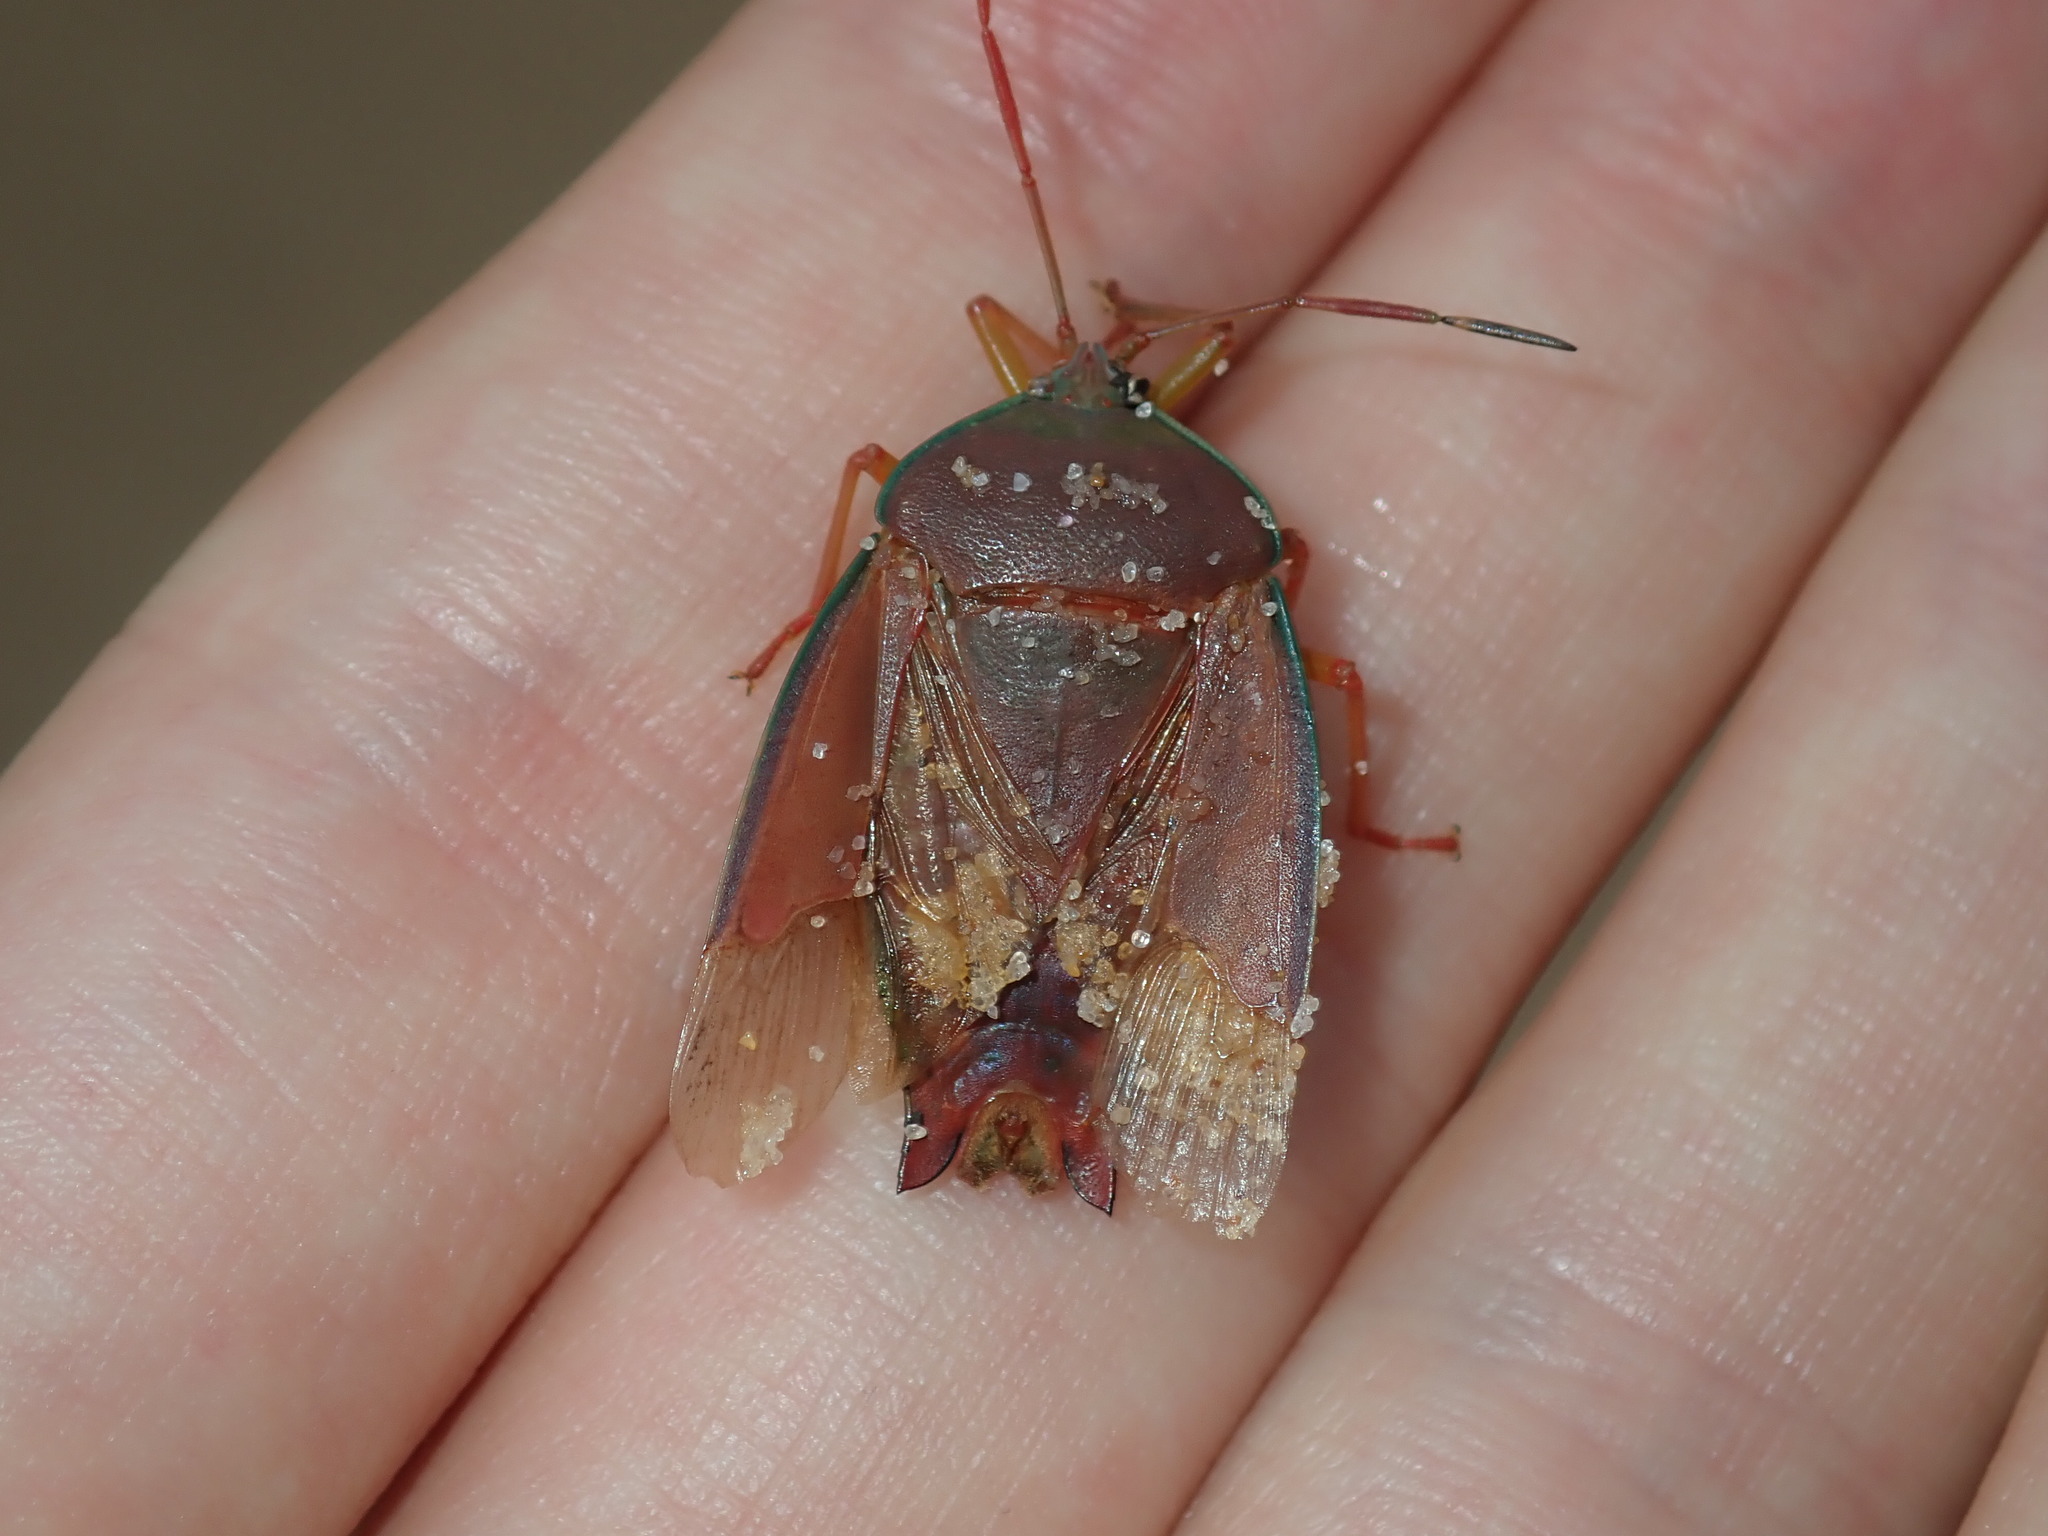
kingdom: Animalia
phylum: Arthropoda
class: Insecta
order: Hemiptera
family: Tessaratomidae
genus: Lyramorpha
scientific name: Lyramorpha rosea
